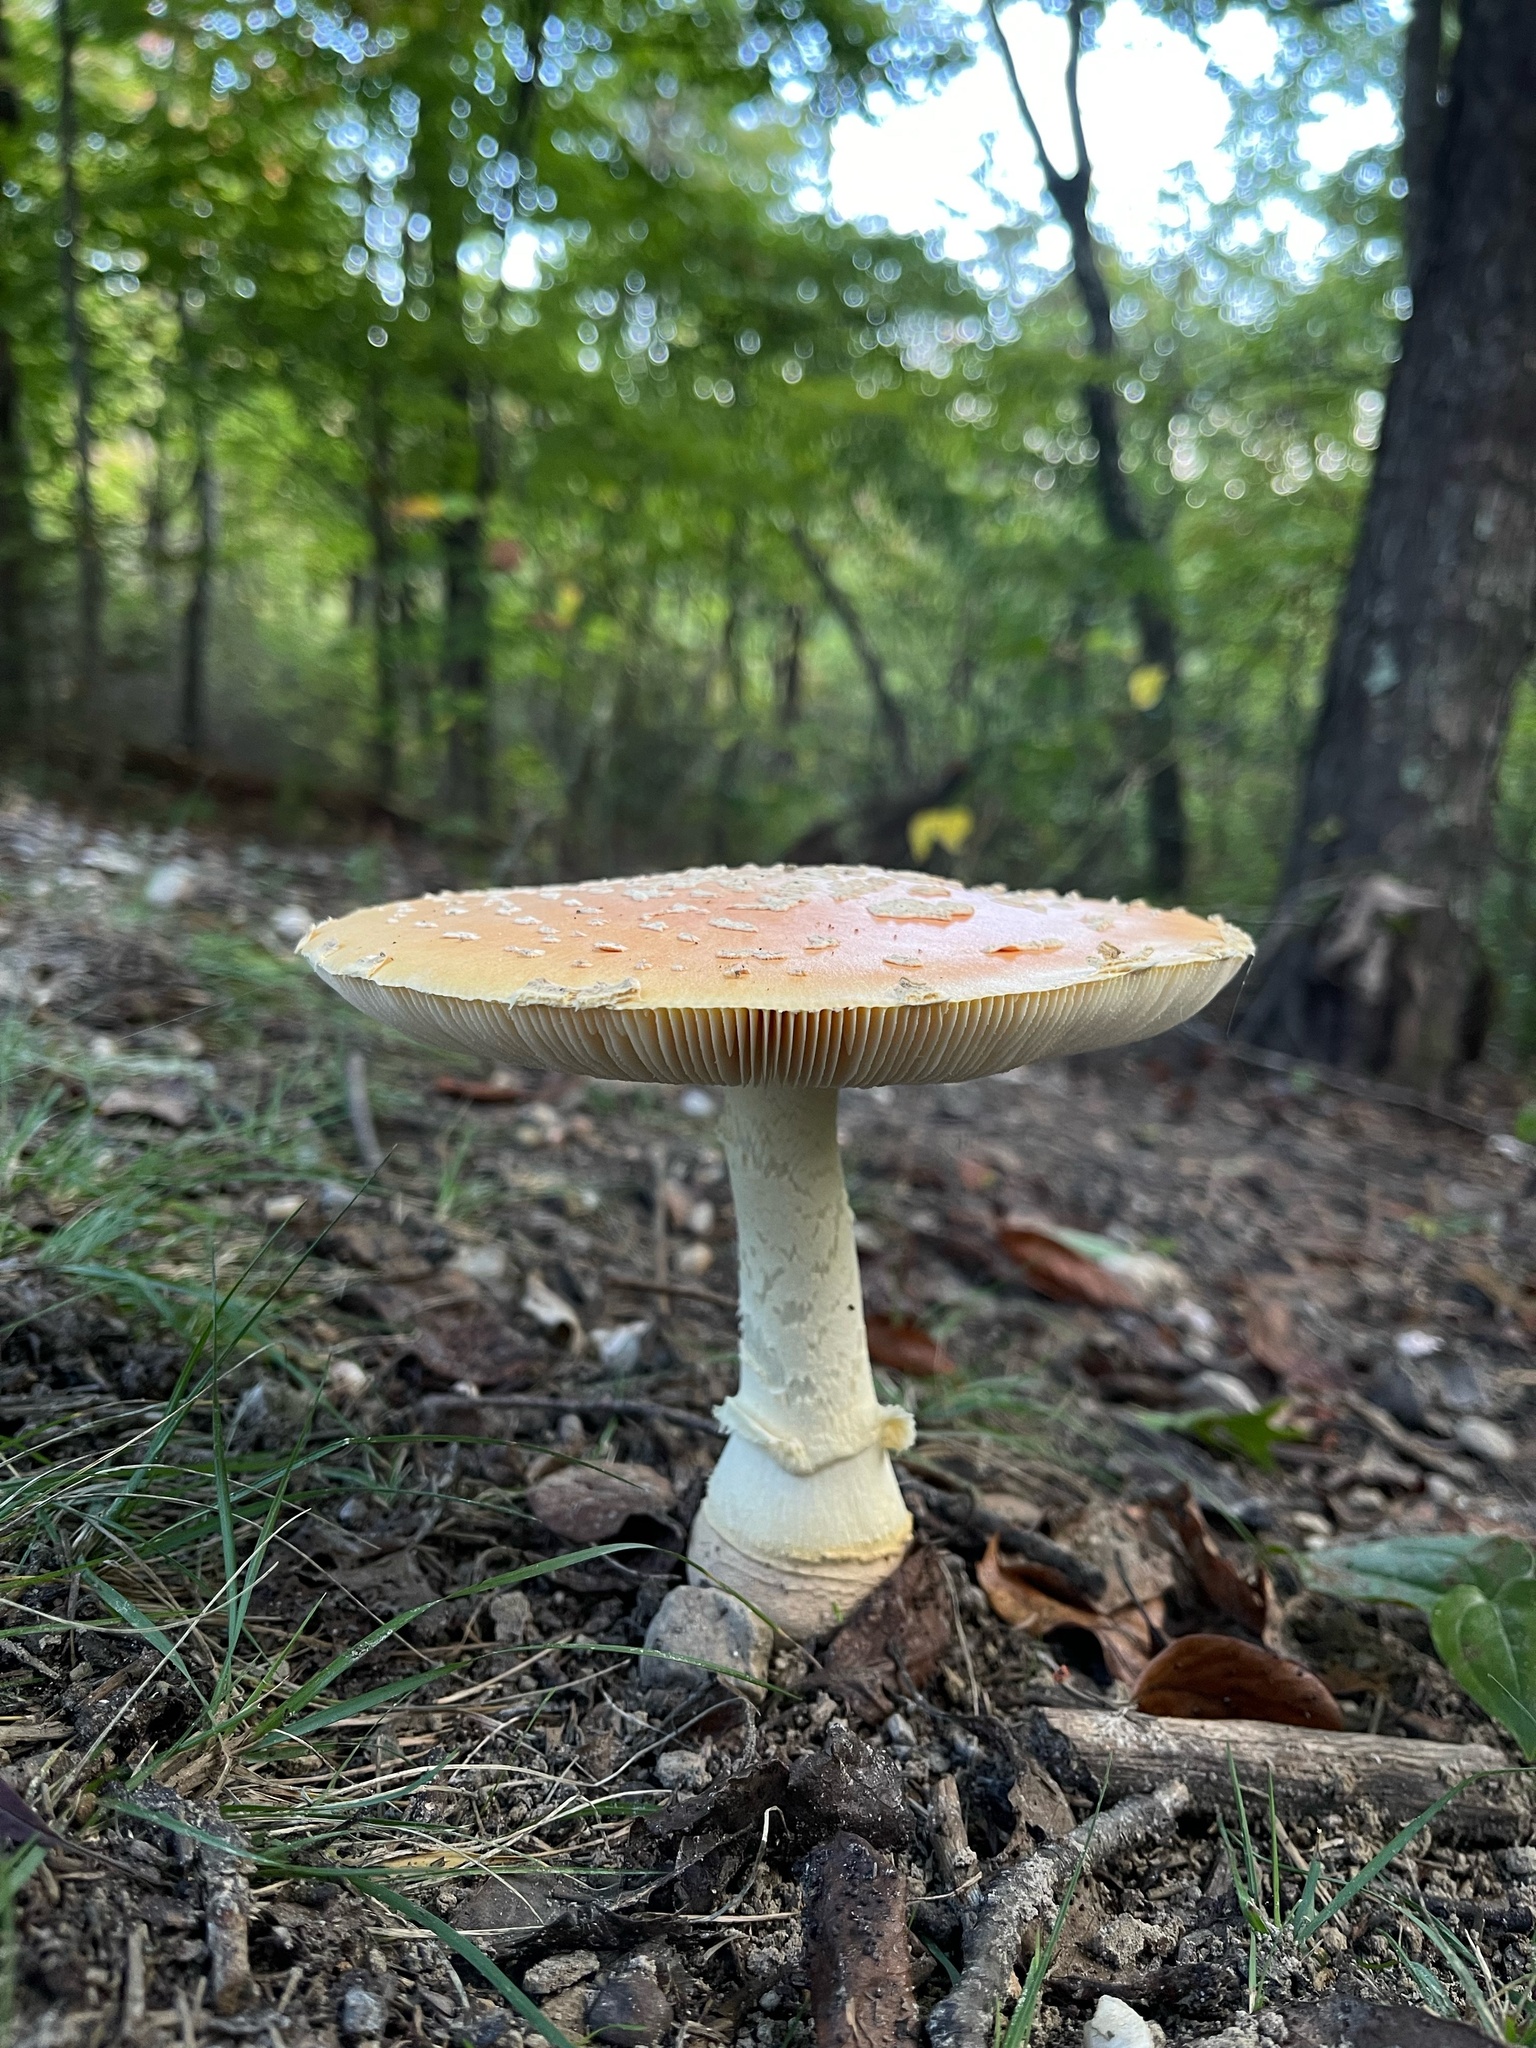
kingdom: Fungi
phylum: Basidiomycota
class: Agaricomycetes
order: Agaricales
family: Amanitaceae
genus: Amanita
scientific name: Amanita persicina
